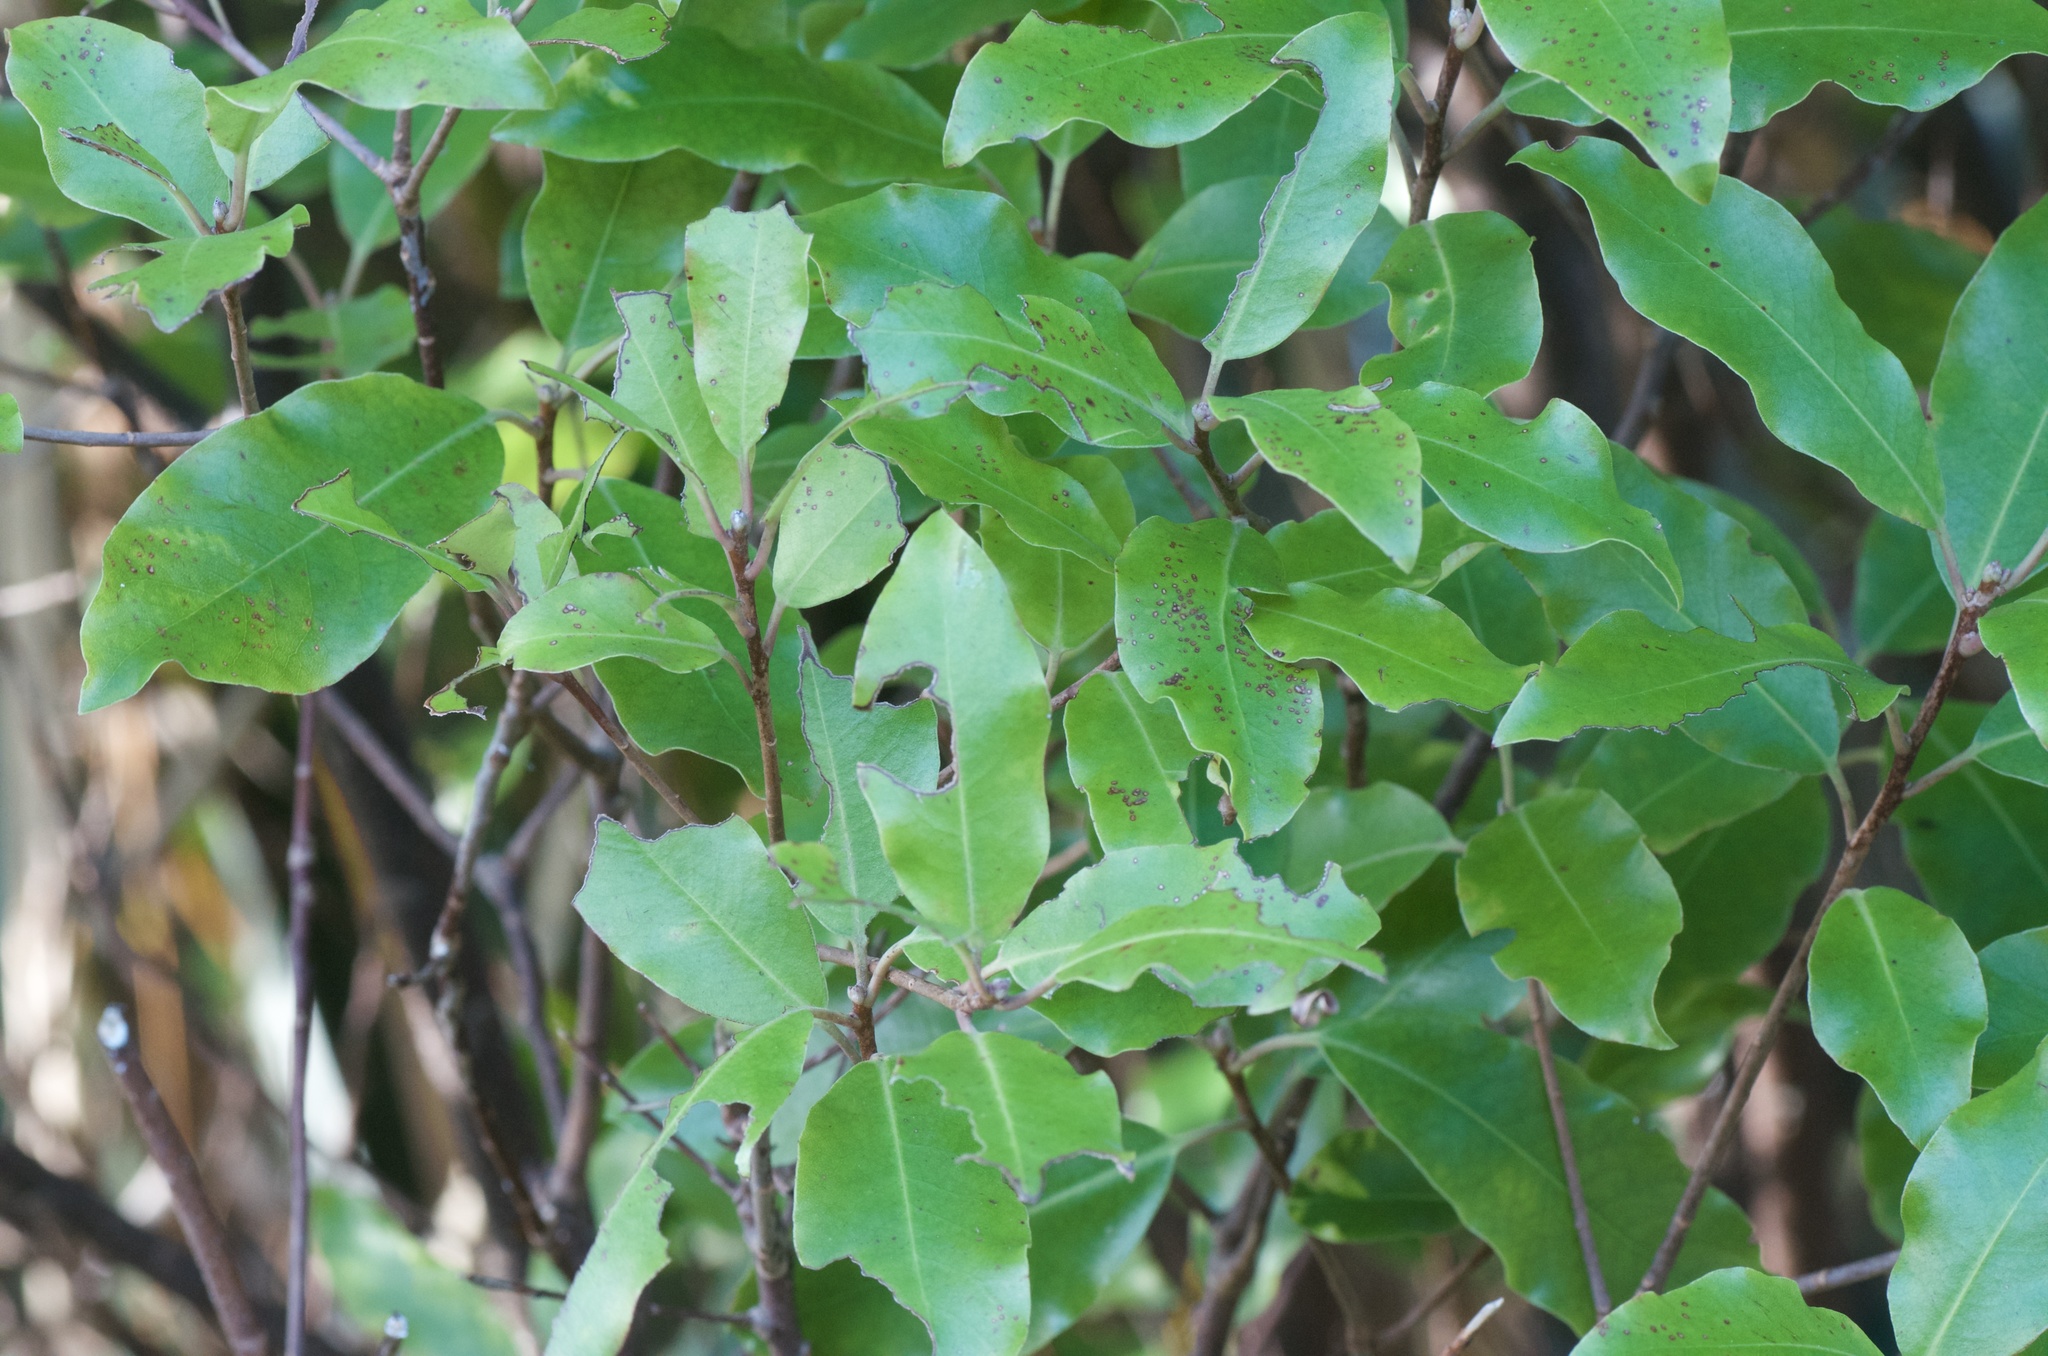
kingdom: Plantae
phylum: Tracheophyta
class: Magnoliopsida
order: Apiales
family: Pittosporaceae
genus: Pittosporum
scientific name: Pittosporum tenuifolium
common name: Kohuhu
